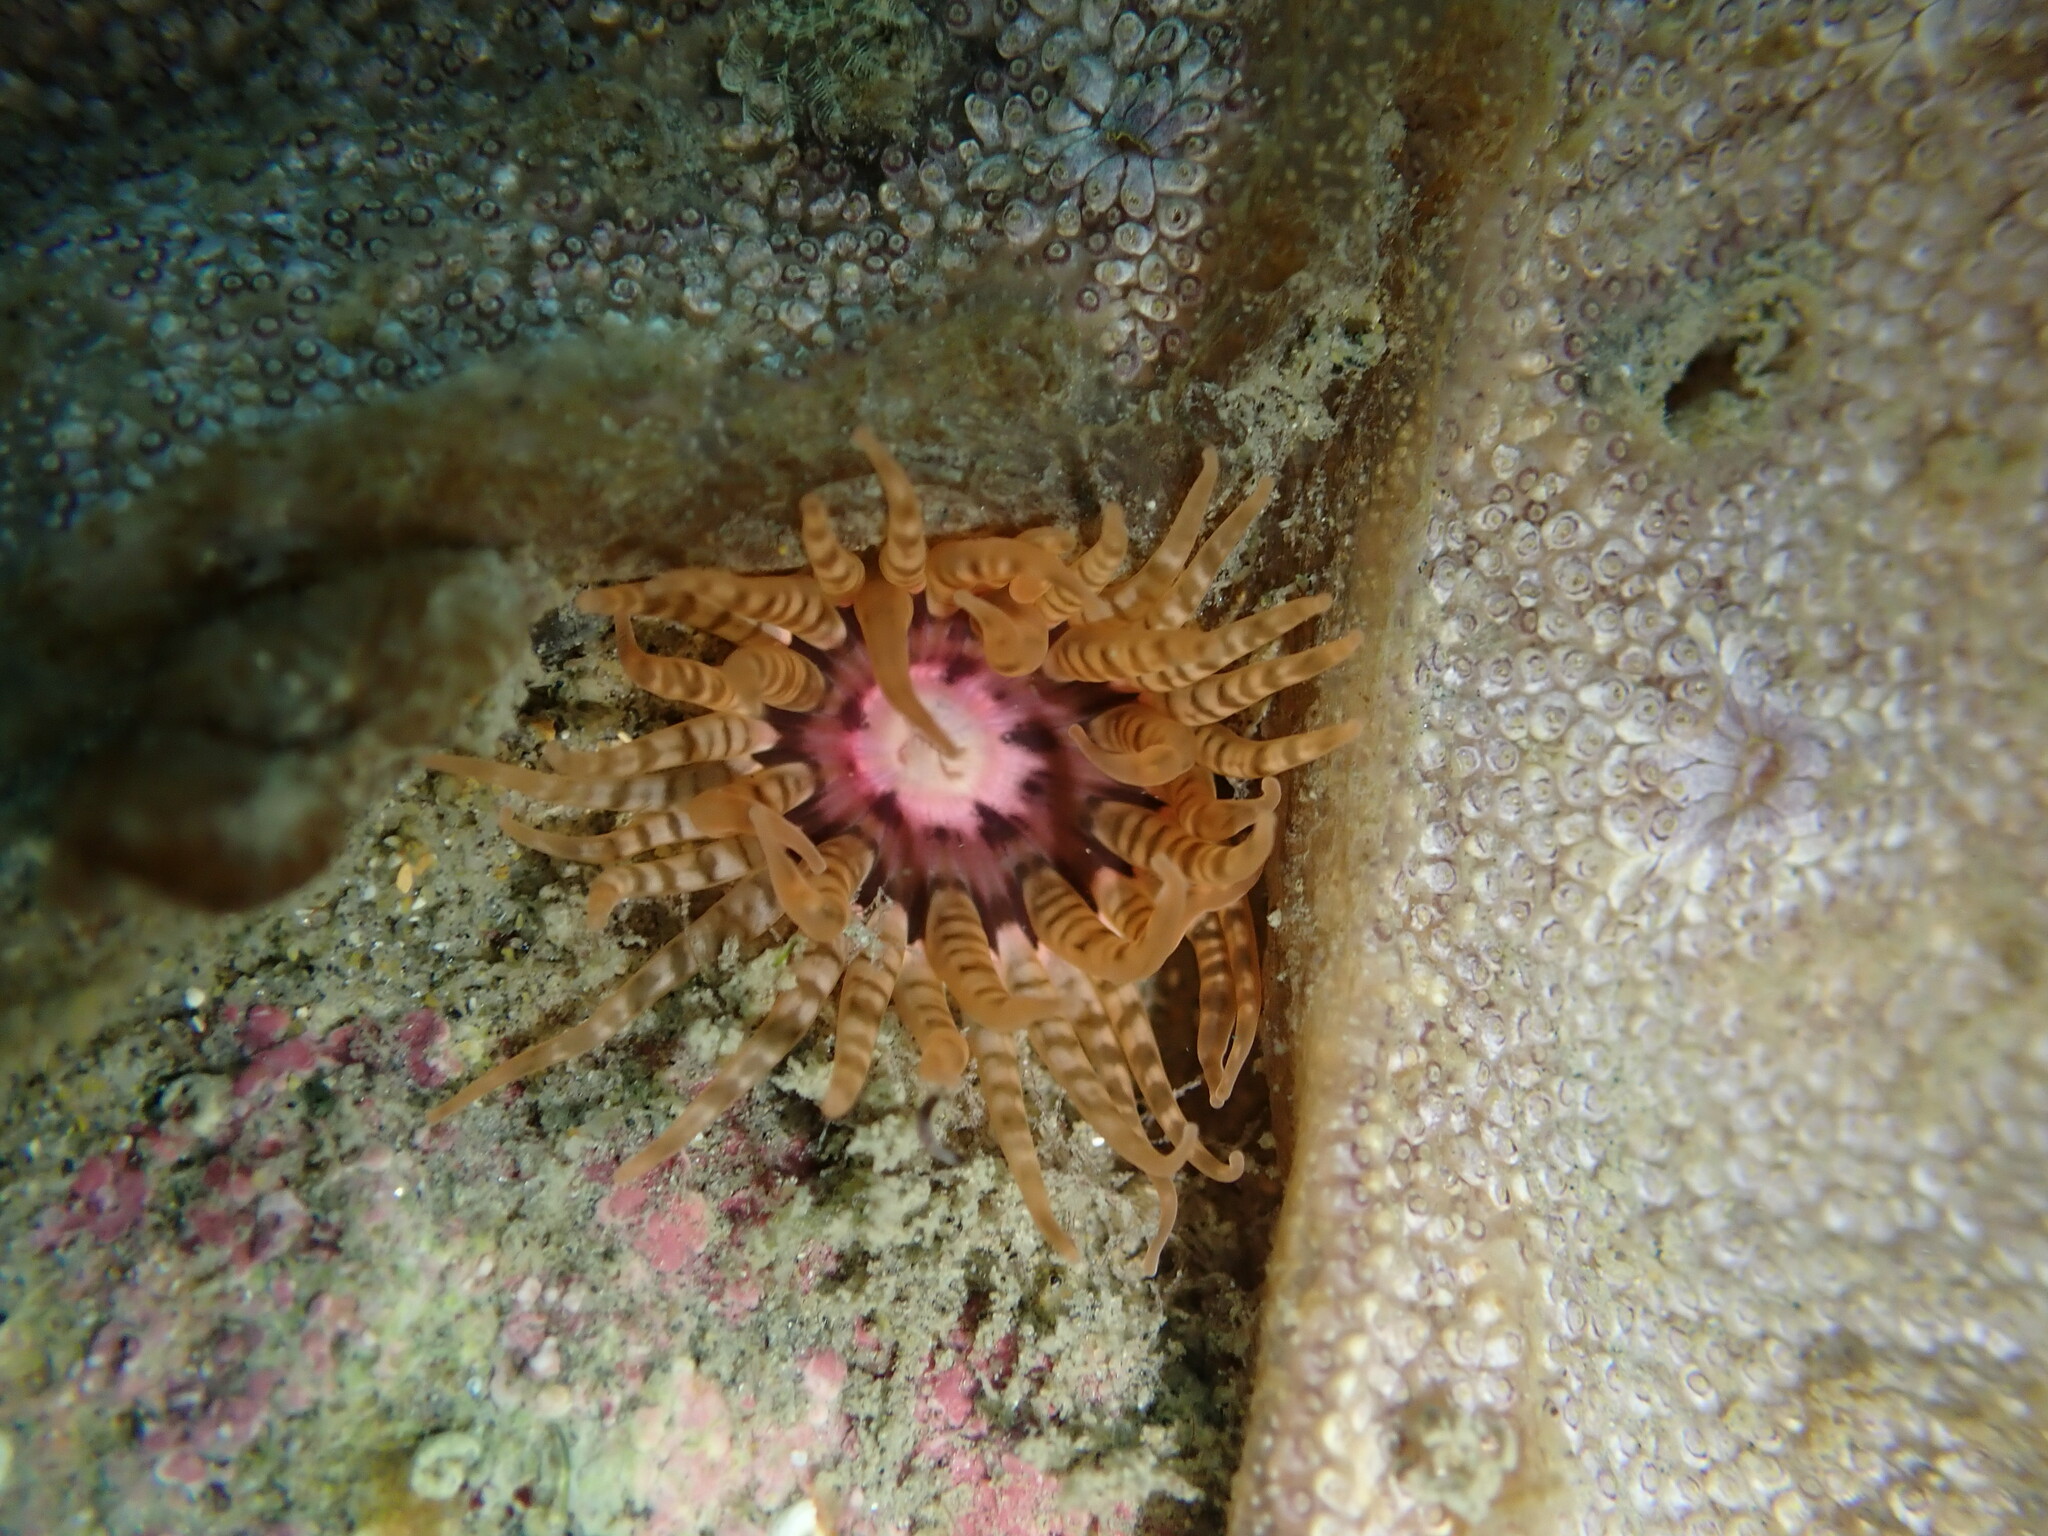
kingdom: Animalia
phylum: Cnidaria
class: Anthozoa
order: Actiniaria
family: Actiniidae
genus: Anthopleura
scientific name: Anthopleura rosea
